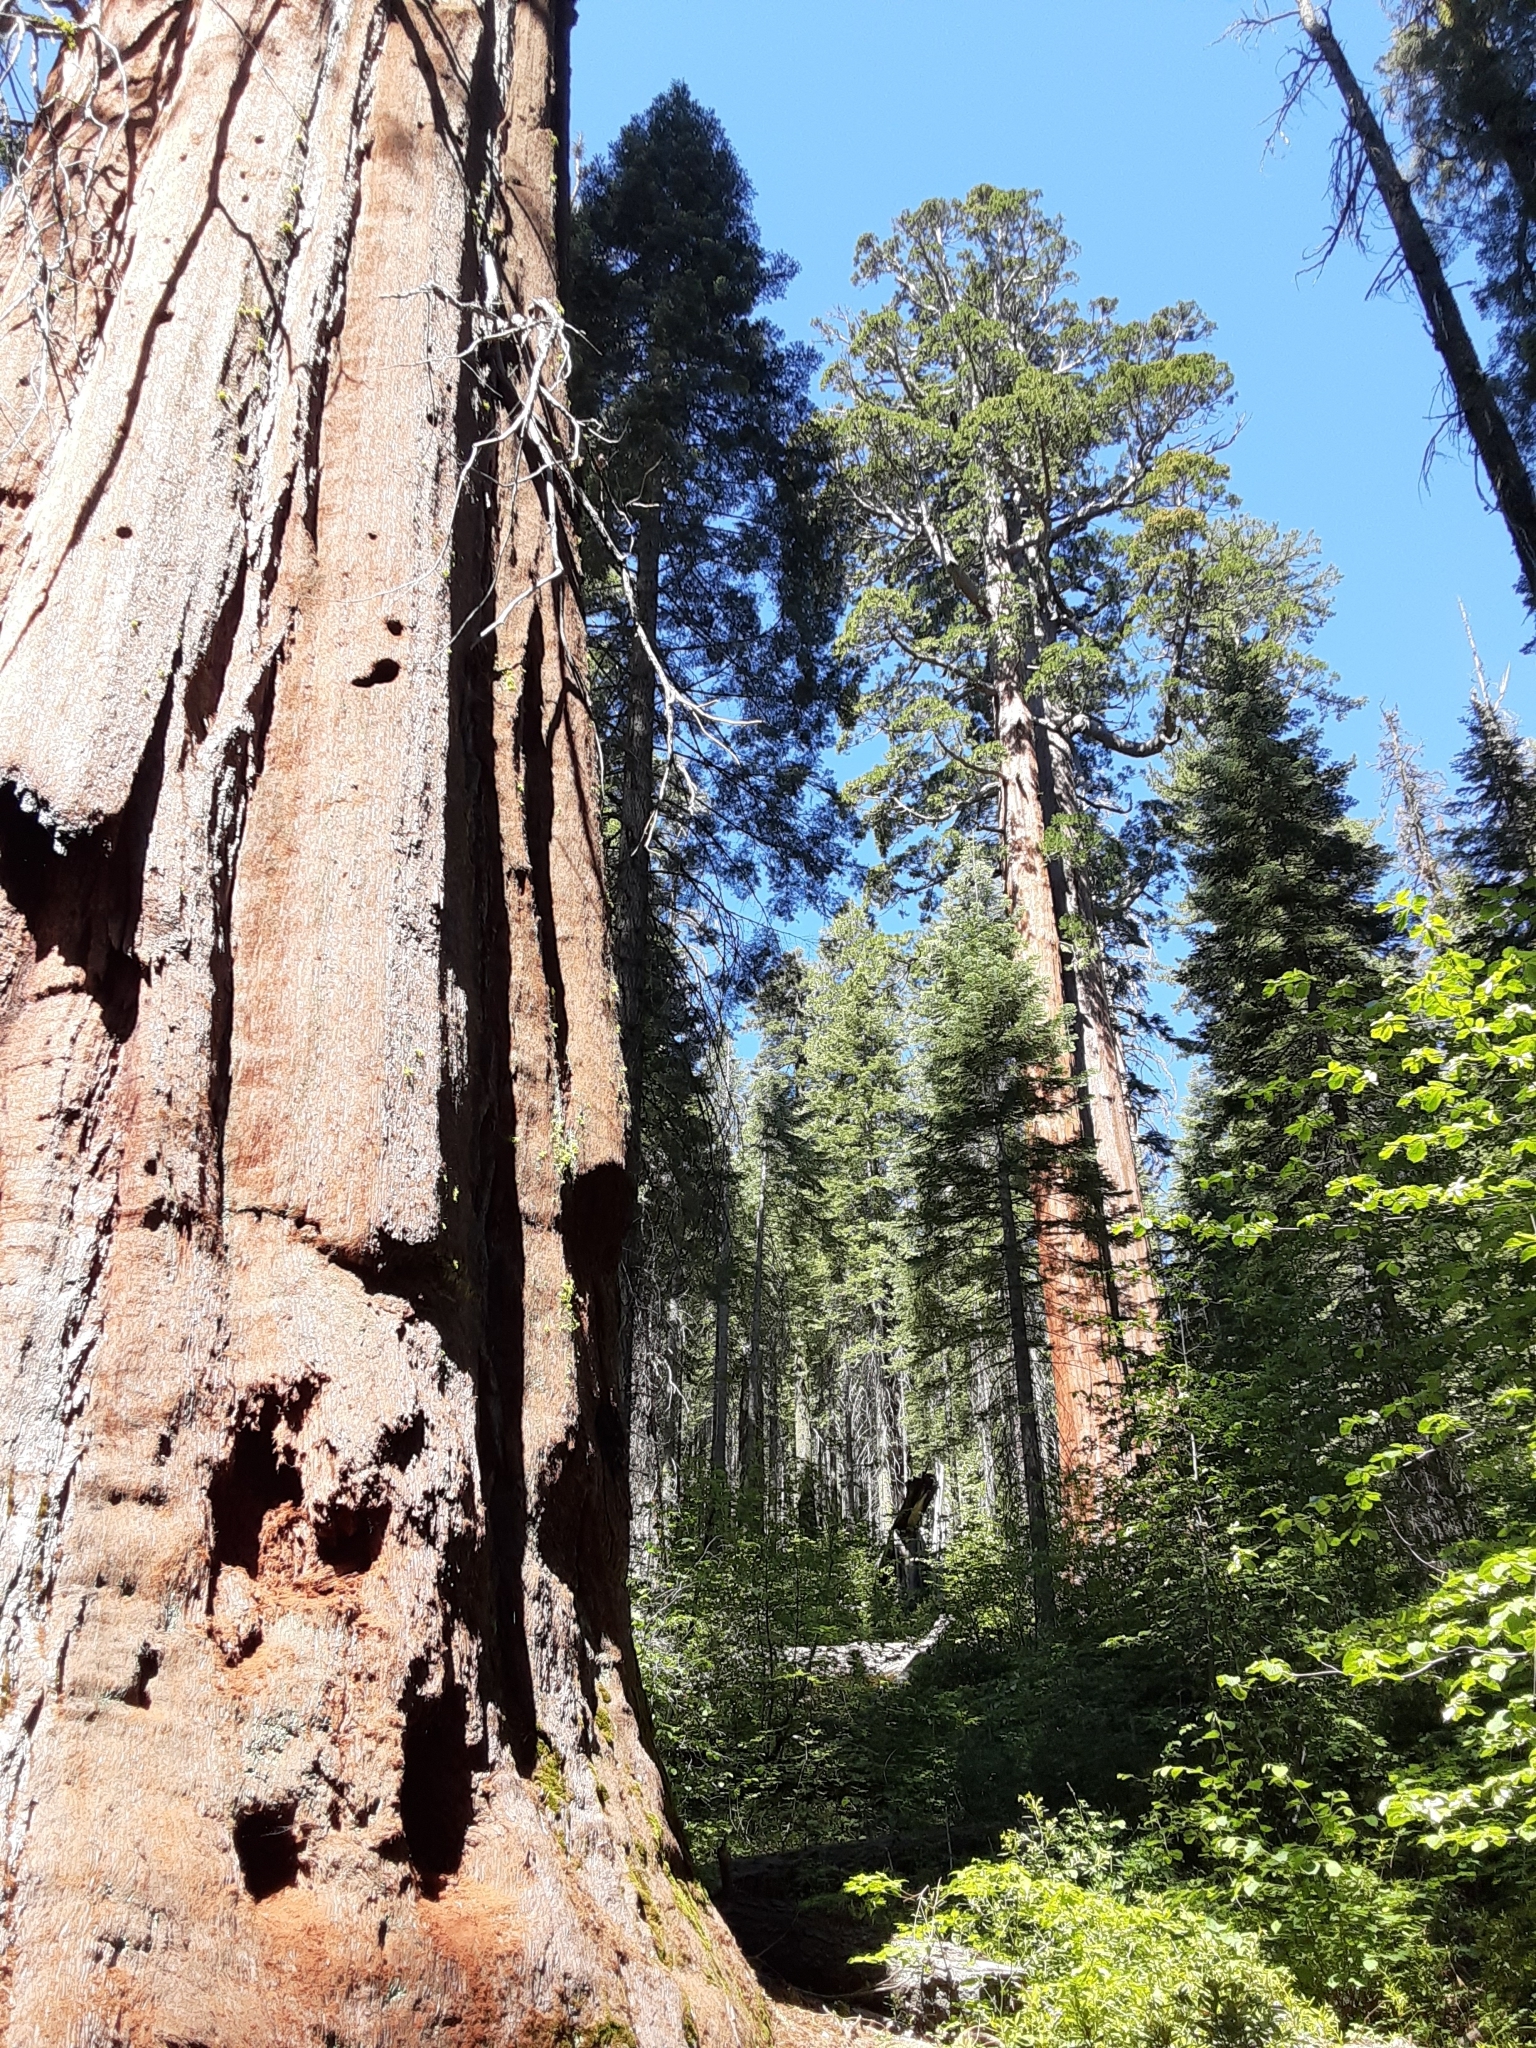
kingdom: Plantae
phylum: Tracheophyta
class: Pinopsida
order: Pinales
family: Cupressaceae
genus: Sequoiadendron
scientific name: Sequoiadendron giganteum
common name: Wellingtonia
